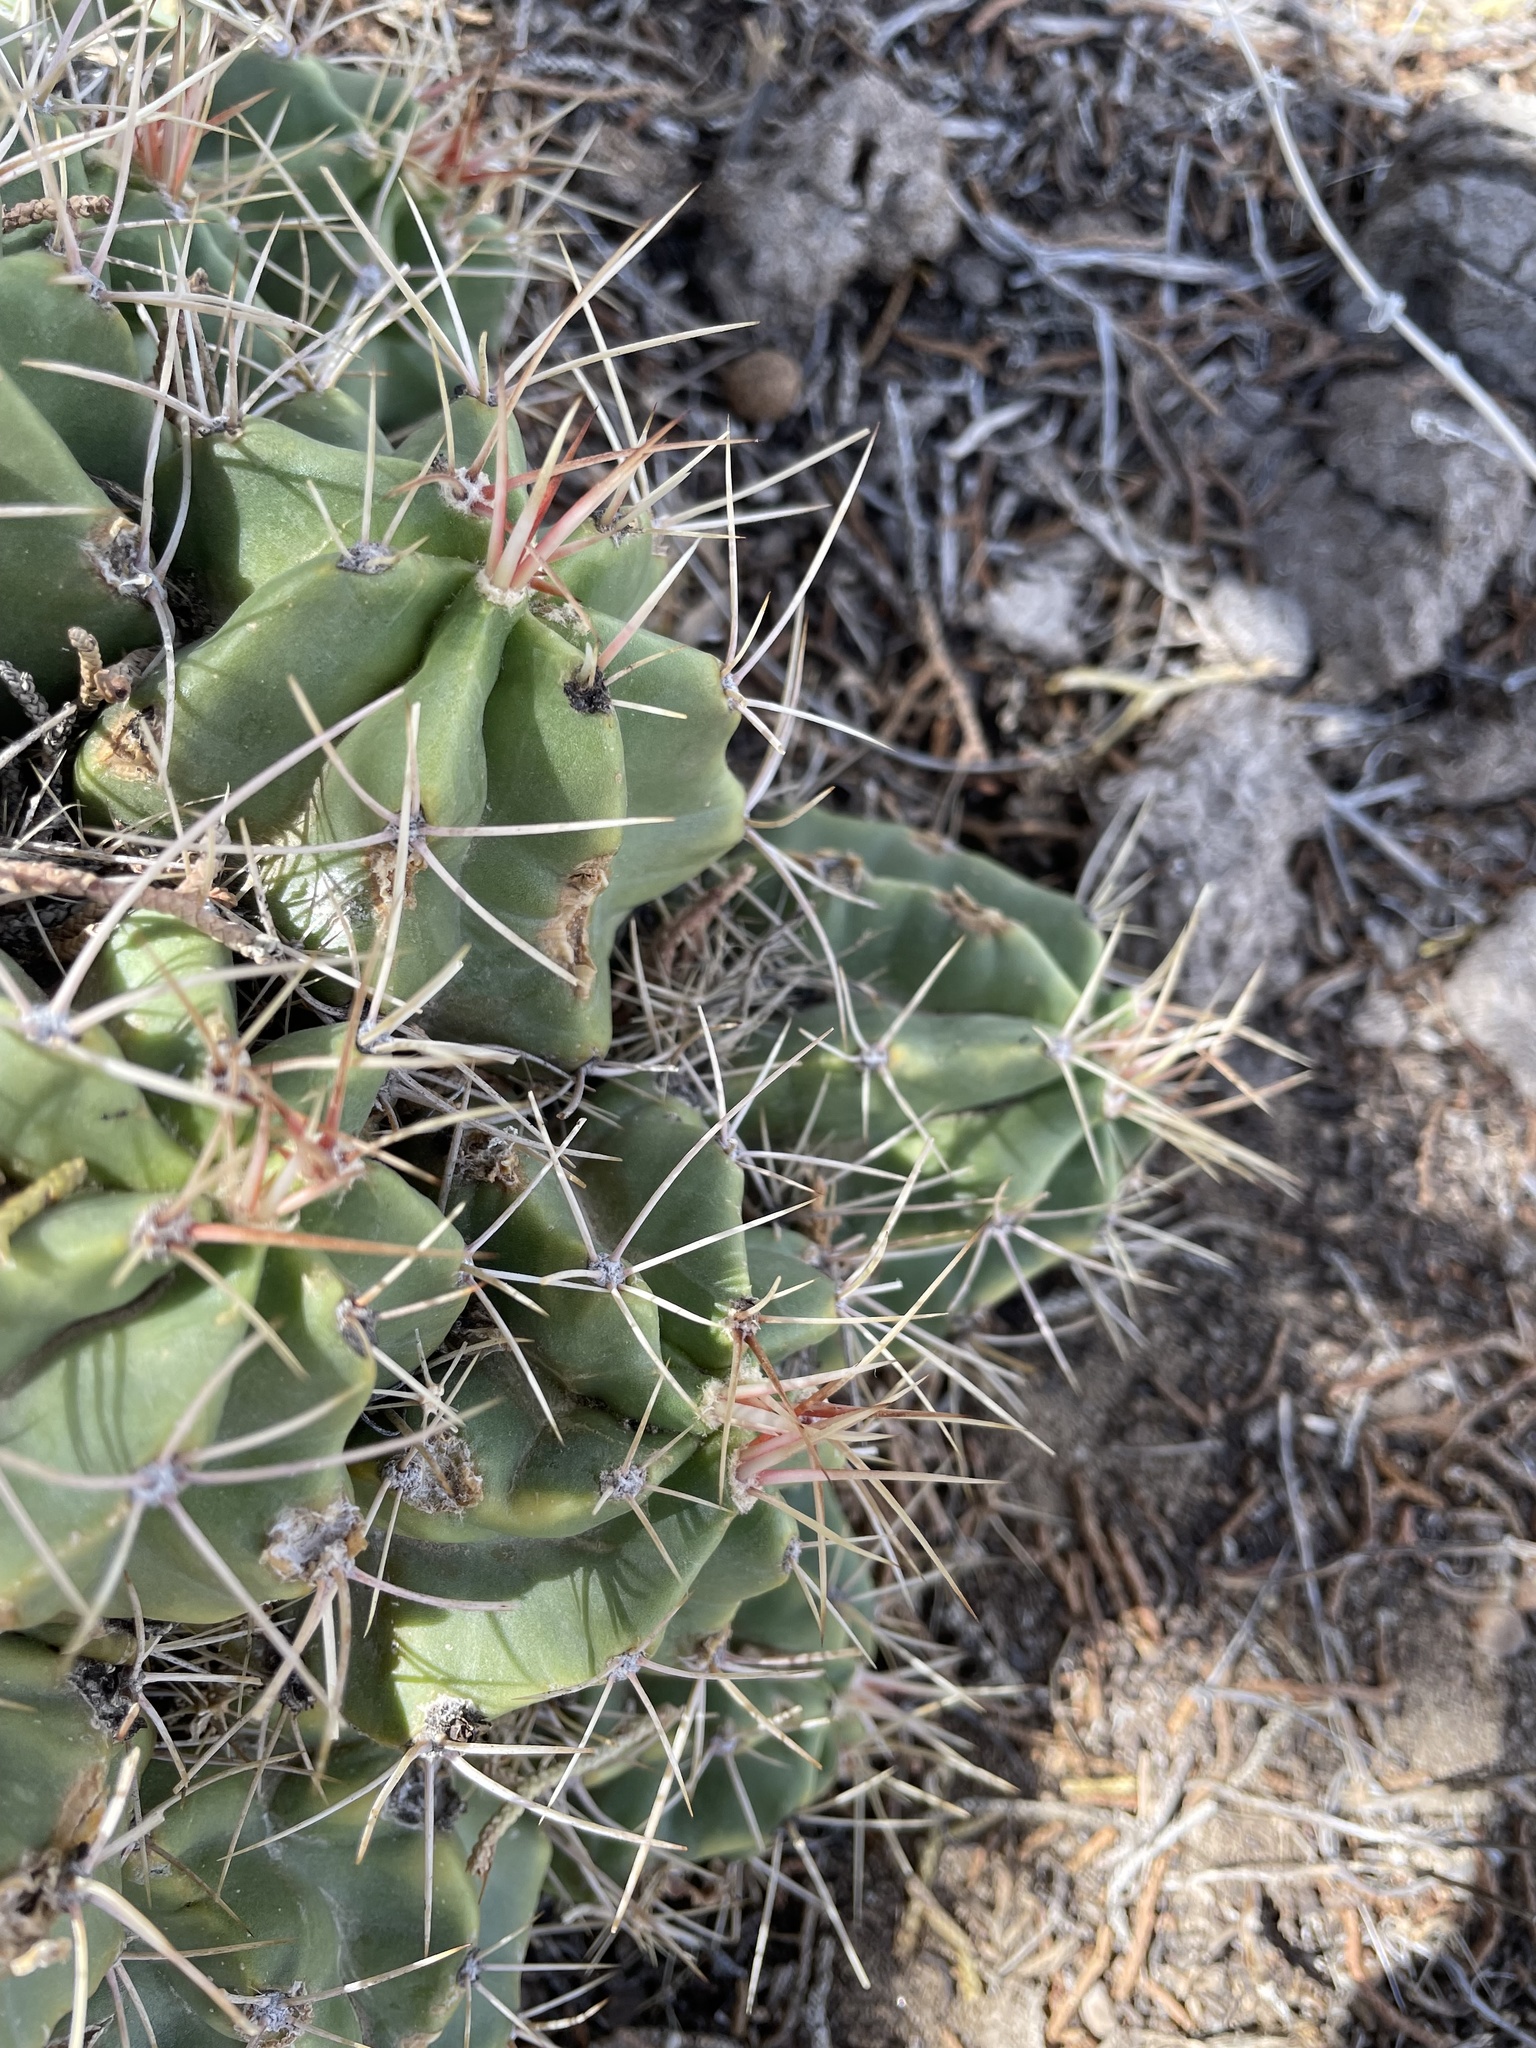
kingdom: Plantae
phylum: Tracheophyta
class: Magnoliopsida
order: Caryophyllales
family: Cactaceae
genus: Echinocereus
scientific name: Echinocereus triglochidiatus
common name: Claretcup hedgehog
